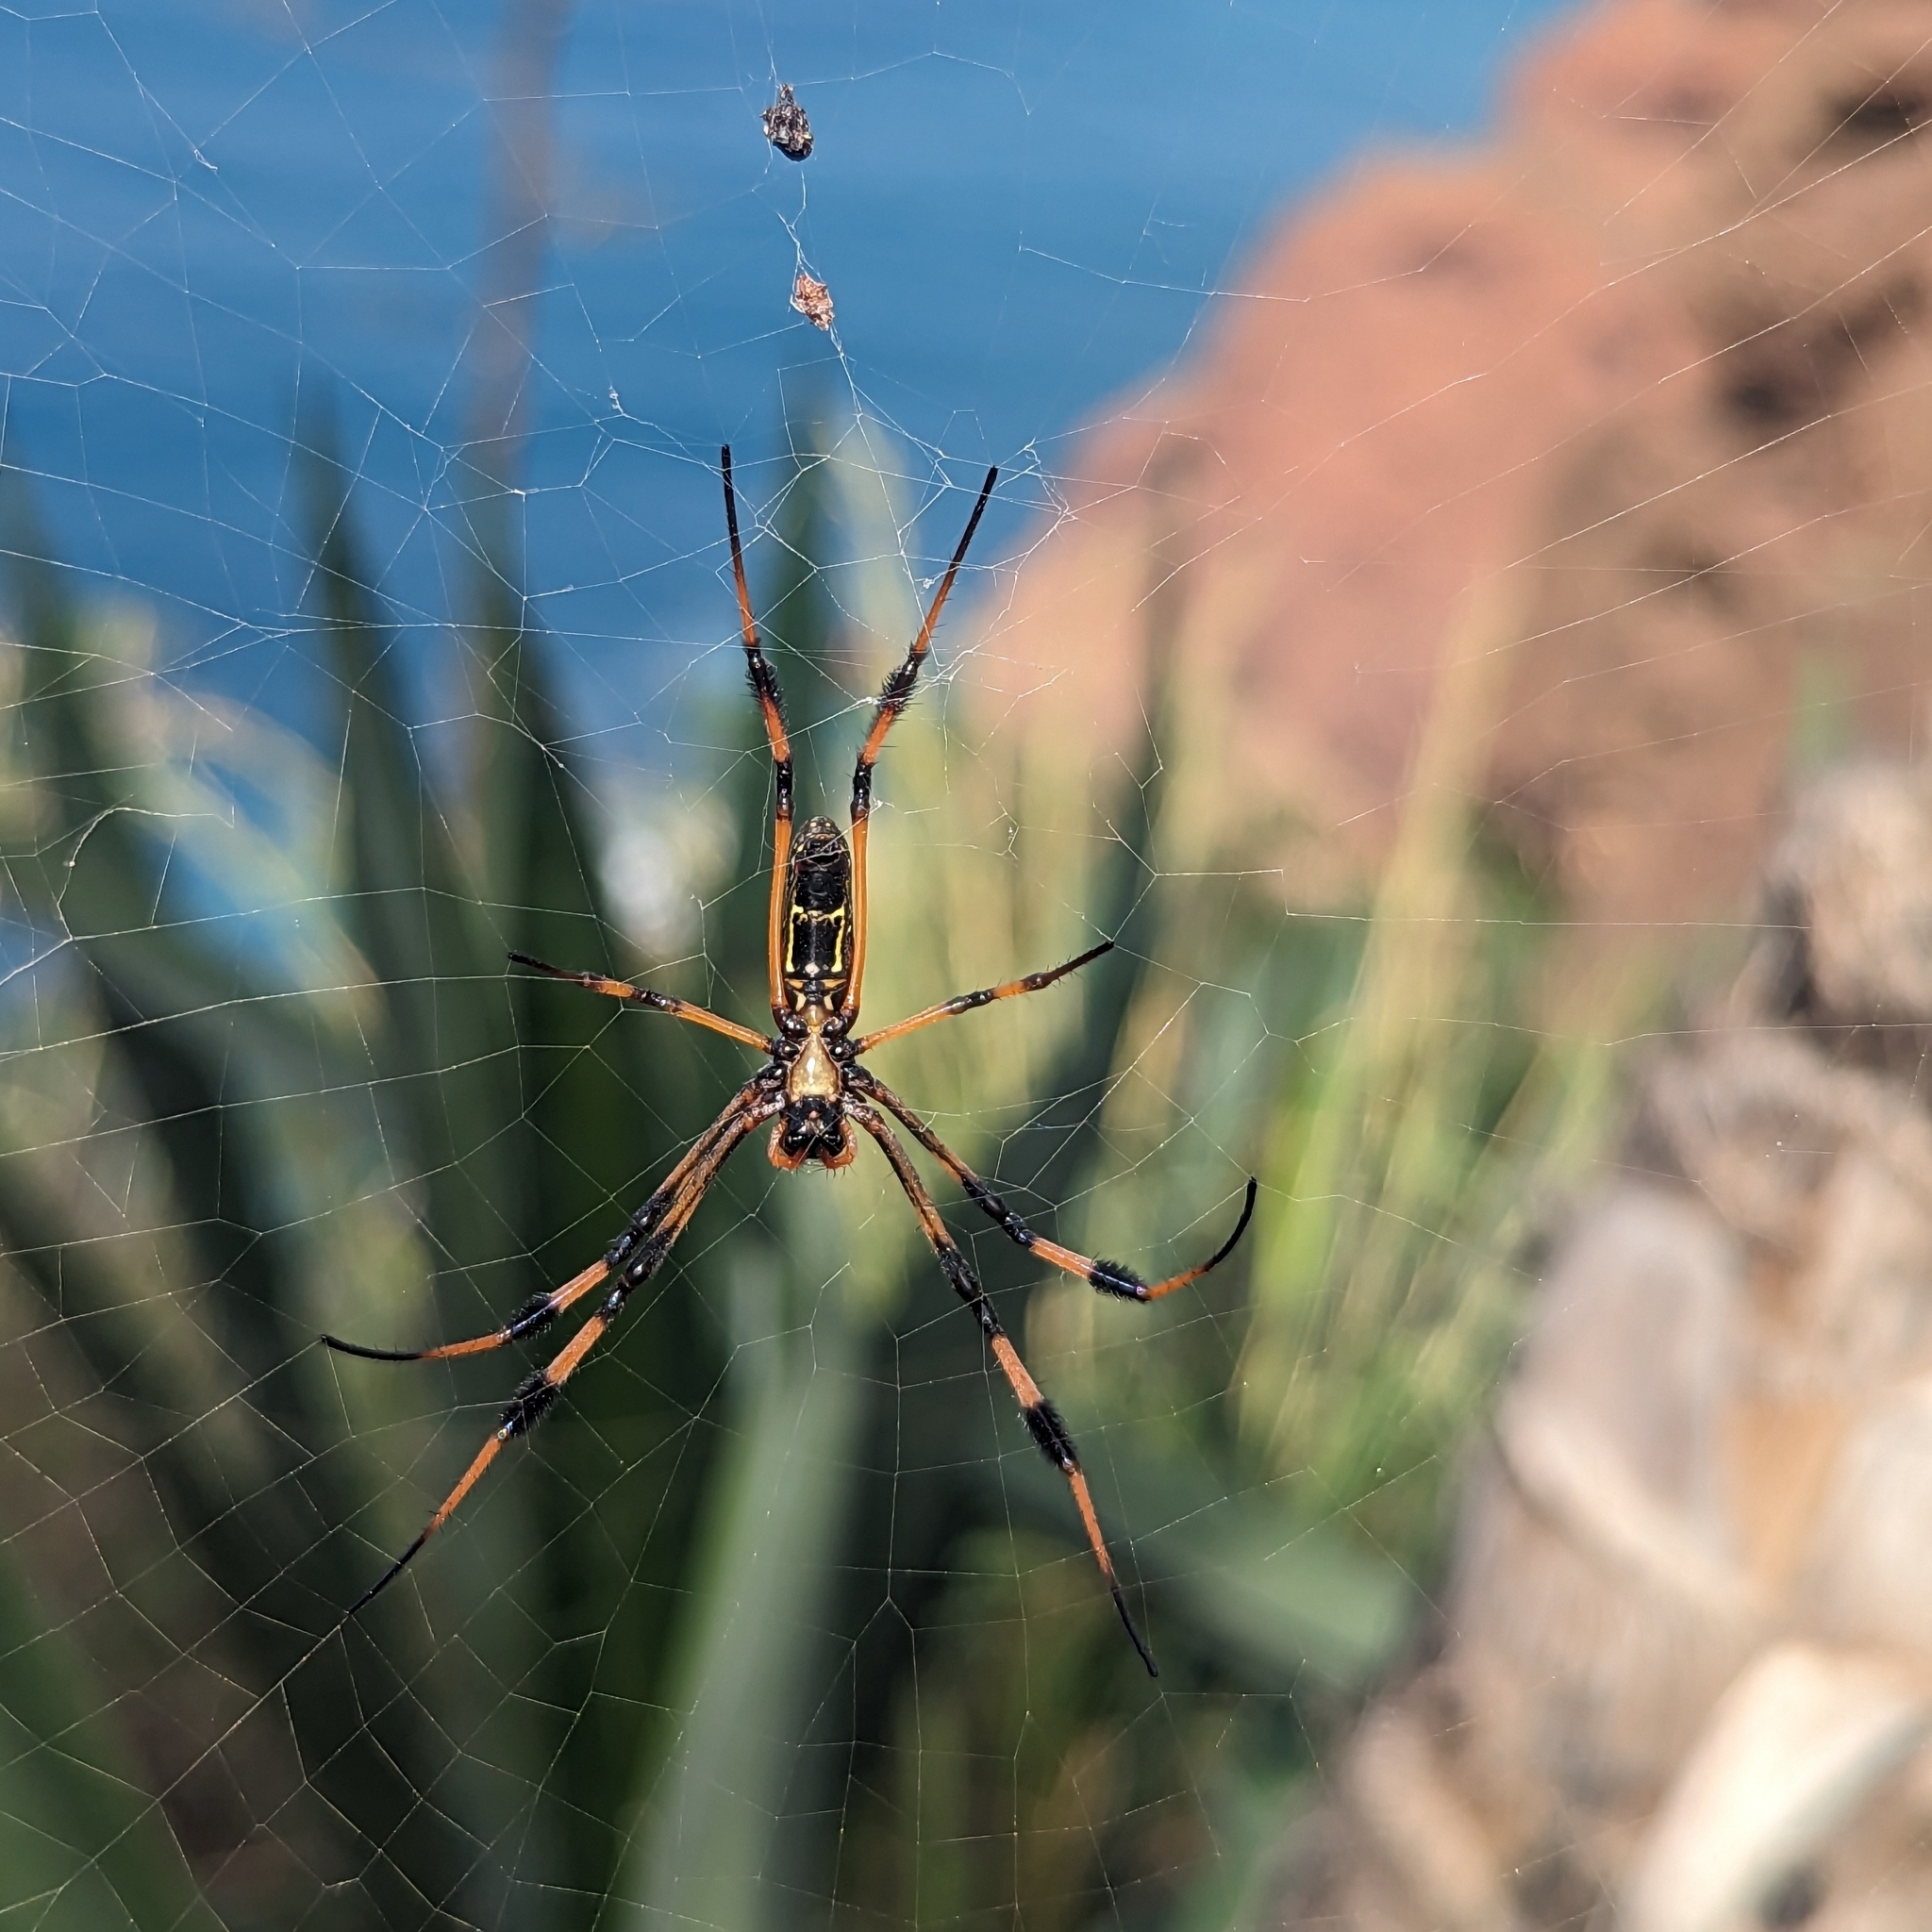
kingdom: Animalia
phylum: Arthropoda
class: Arachnida
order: Araneae
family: Araneidae
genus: Trichonephila
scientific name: Trichonephila senegalensis
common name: Banded golden orb weaver
